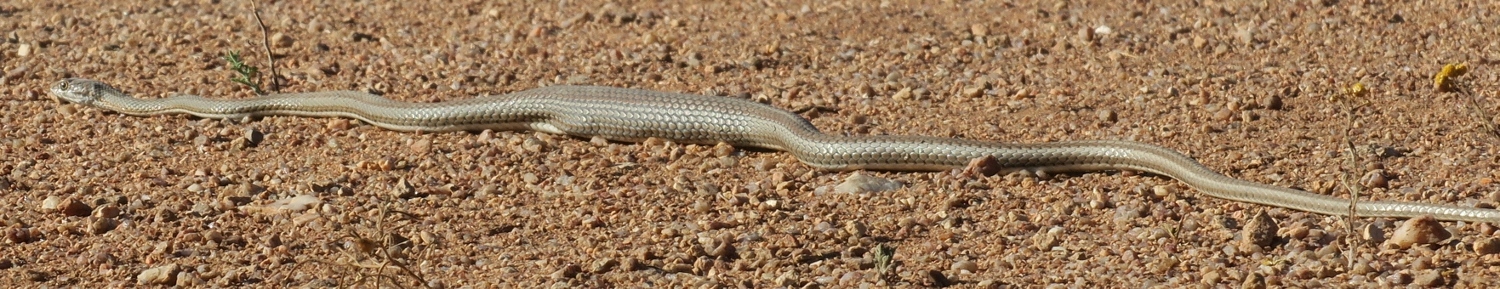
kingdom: Animalia
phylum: Chordata
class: Squamata
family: Psammophiidae
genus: Psammophis
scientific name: Psammophis notostictus
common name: Karoo sand snake
